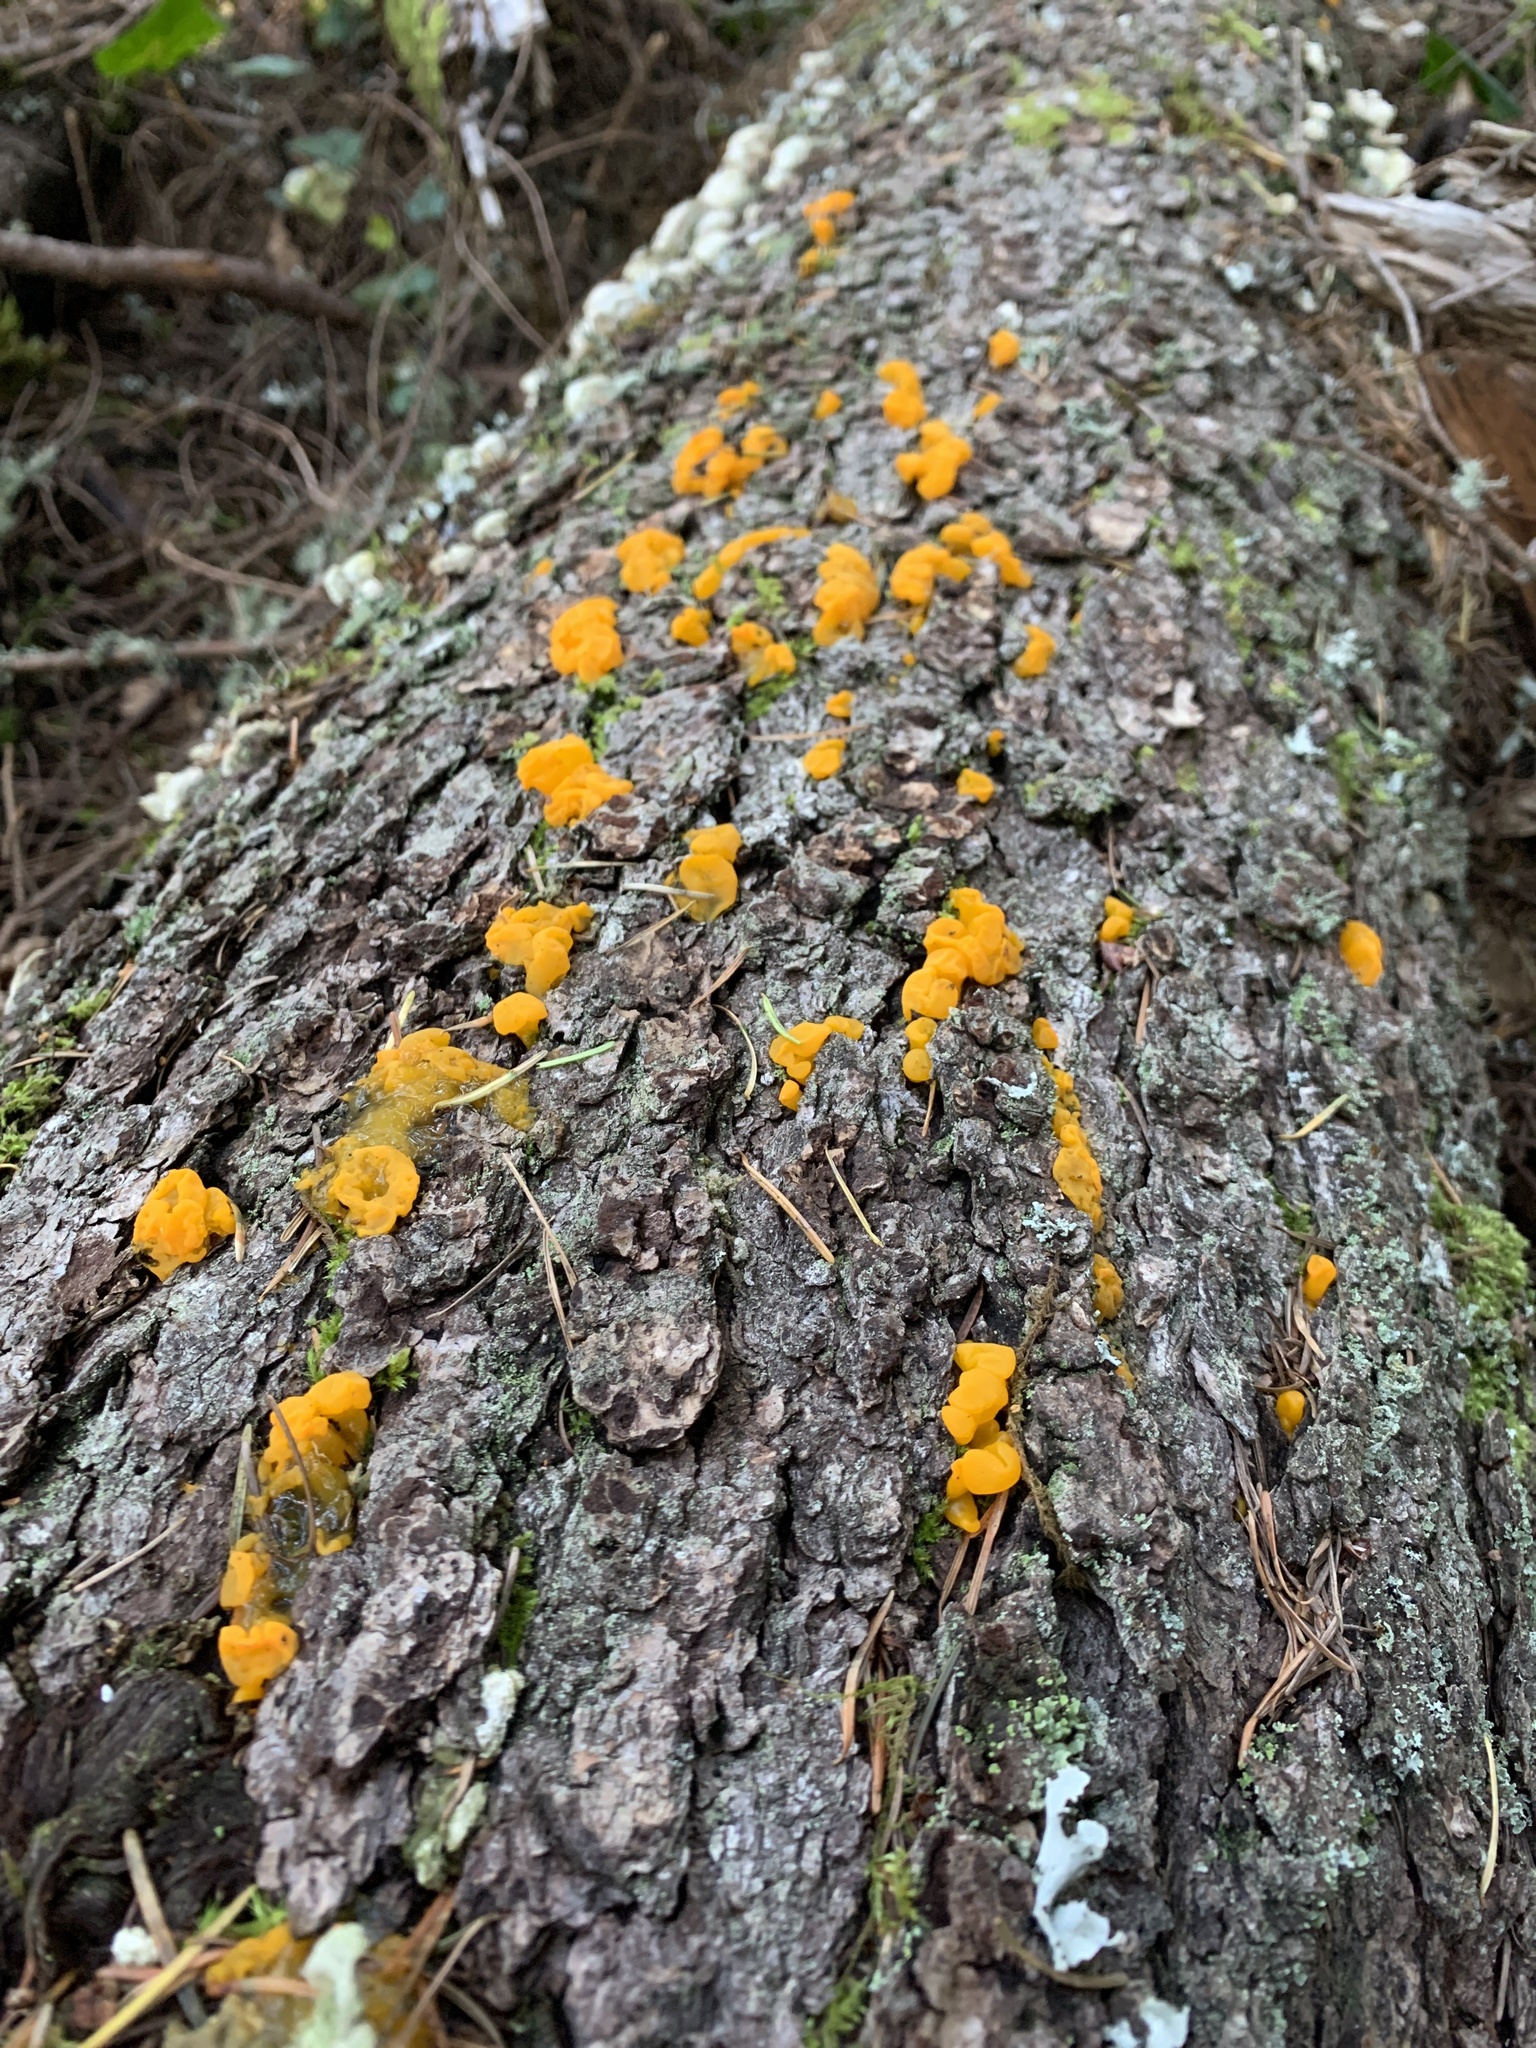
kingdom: Fungi
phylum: Basidiomycota
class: Dacrymycetes
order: Dacrymycetales
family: Dacrymycetaceae
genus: Dacrymyces
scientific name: Dacrymyces chrysospermus
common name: Orange jelly spot
